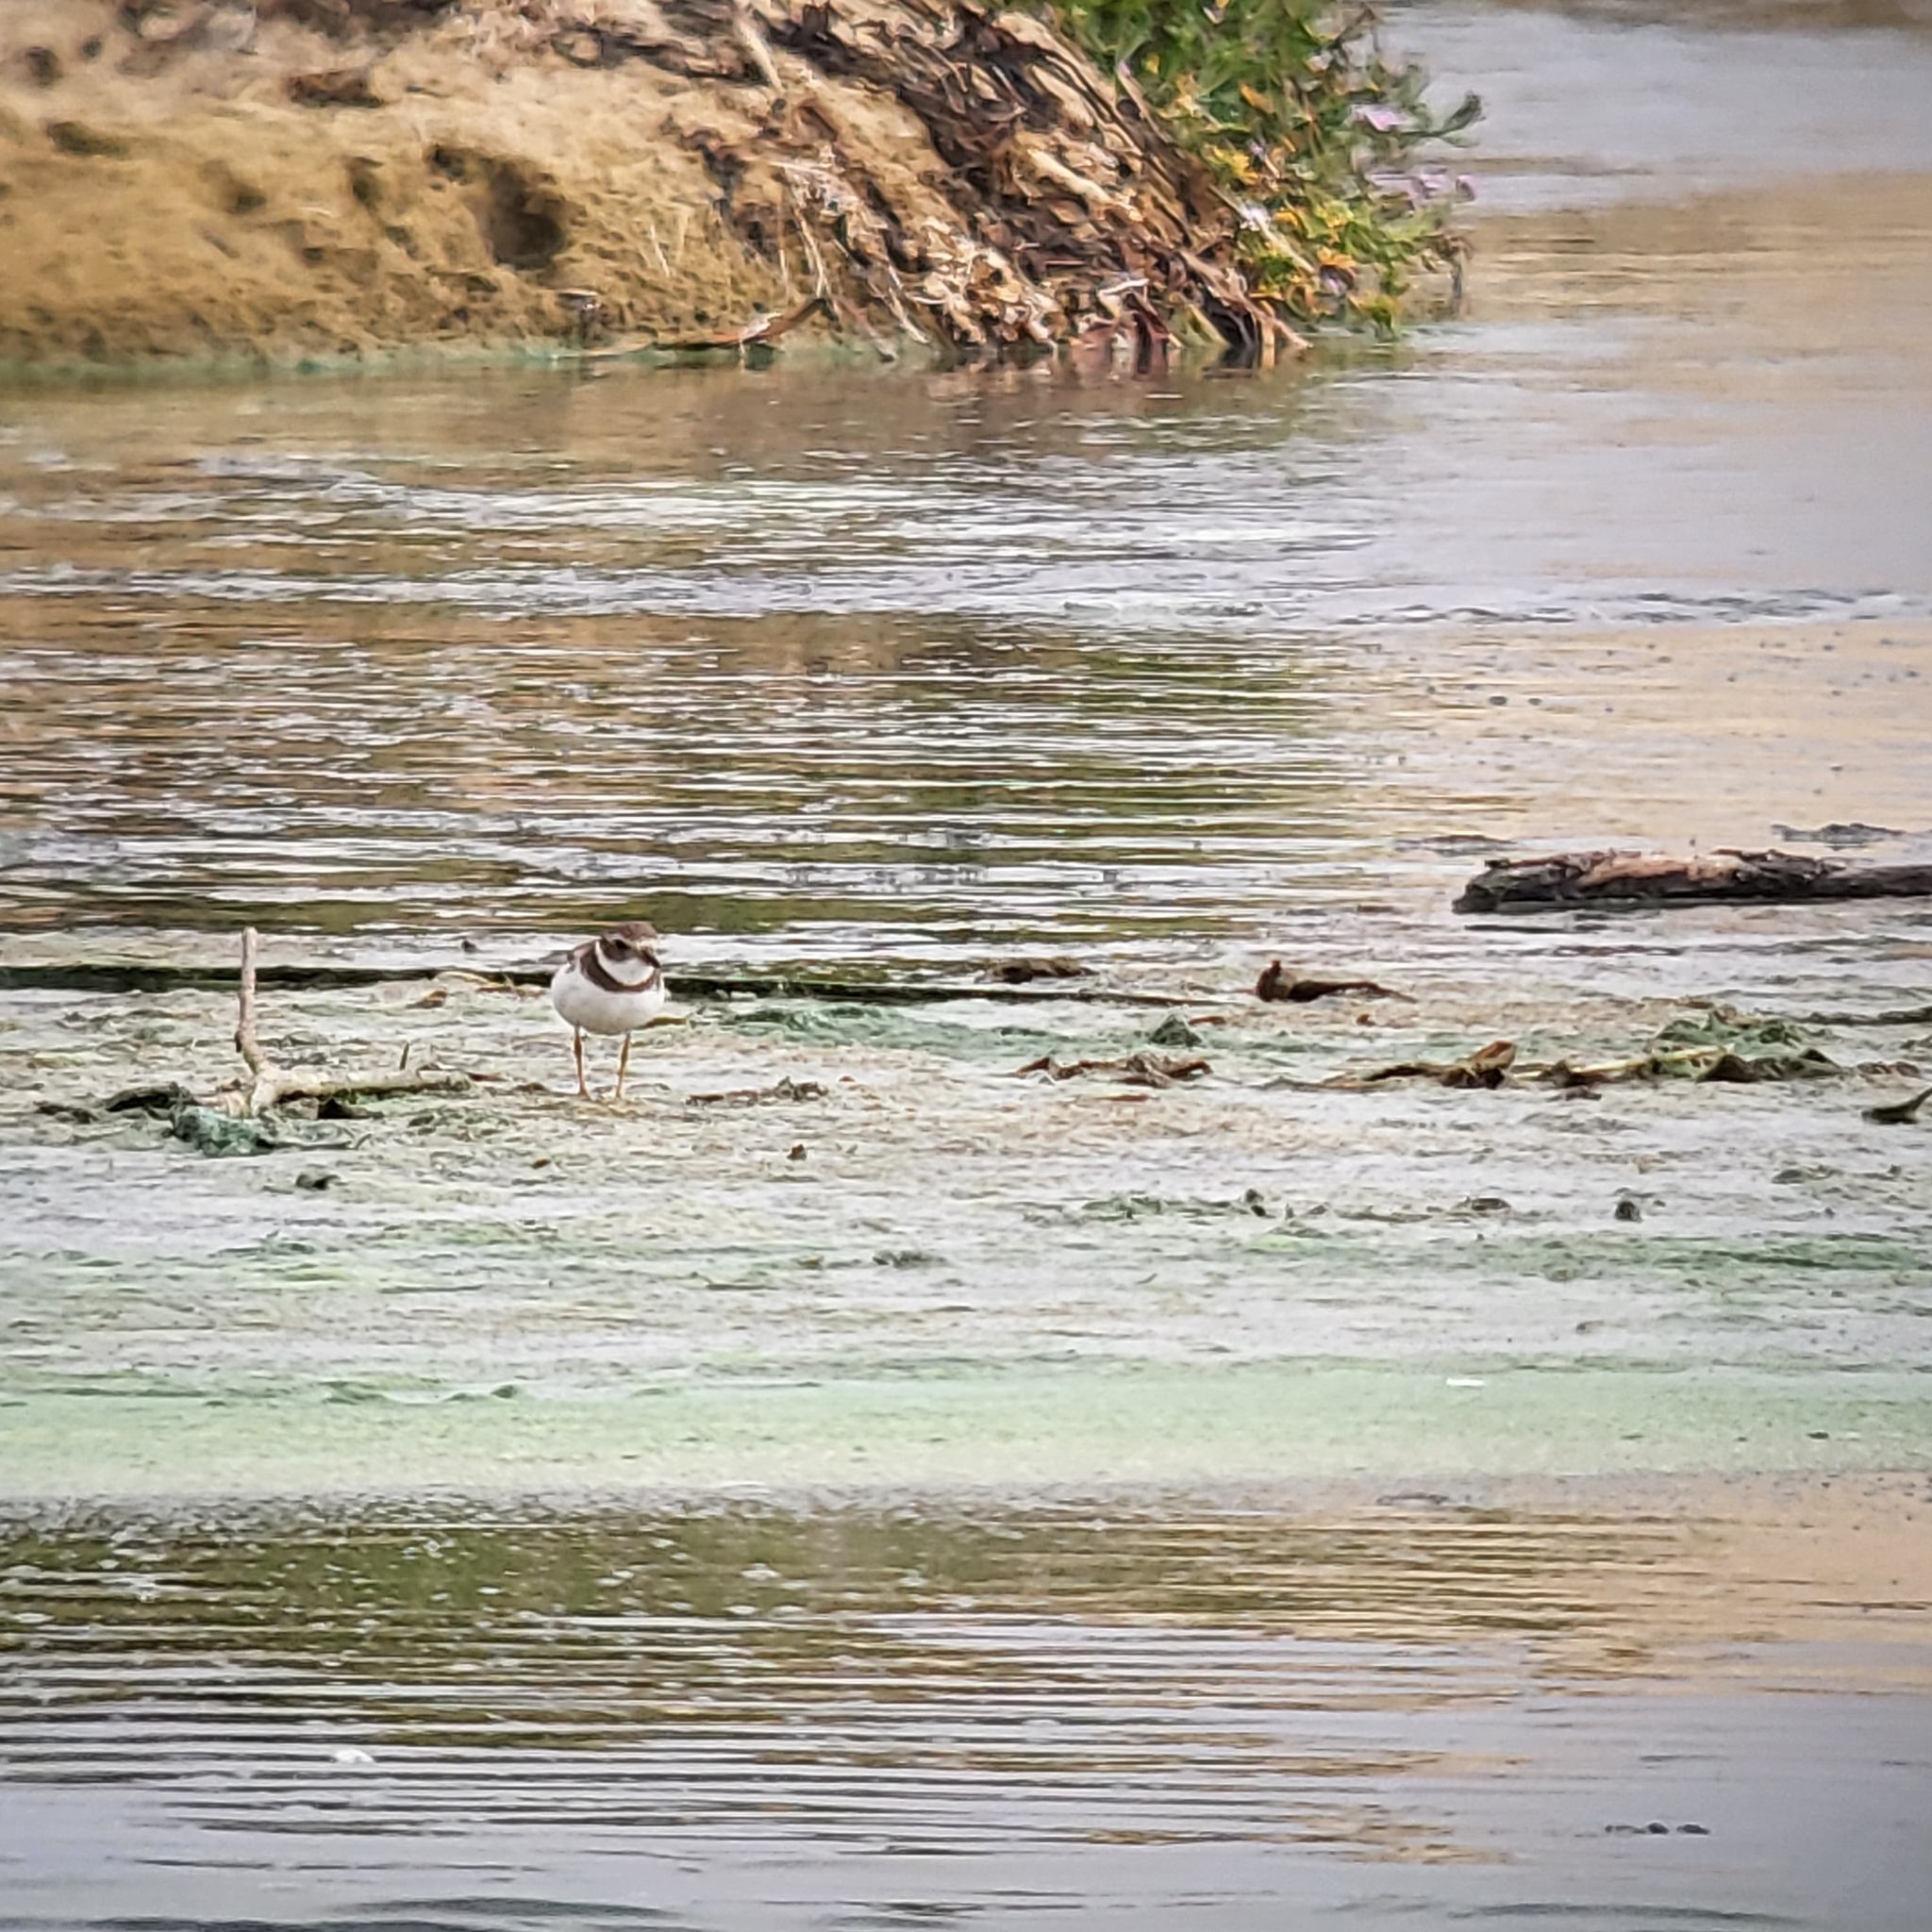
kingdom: Animalia
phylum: Chordata
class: Aves
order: Charadriiformes
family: Charadriidae
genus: Charadrius
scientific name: Charadrius semipalmatus
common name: Semipalmated plover
